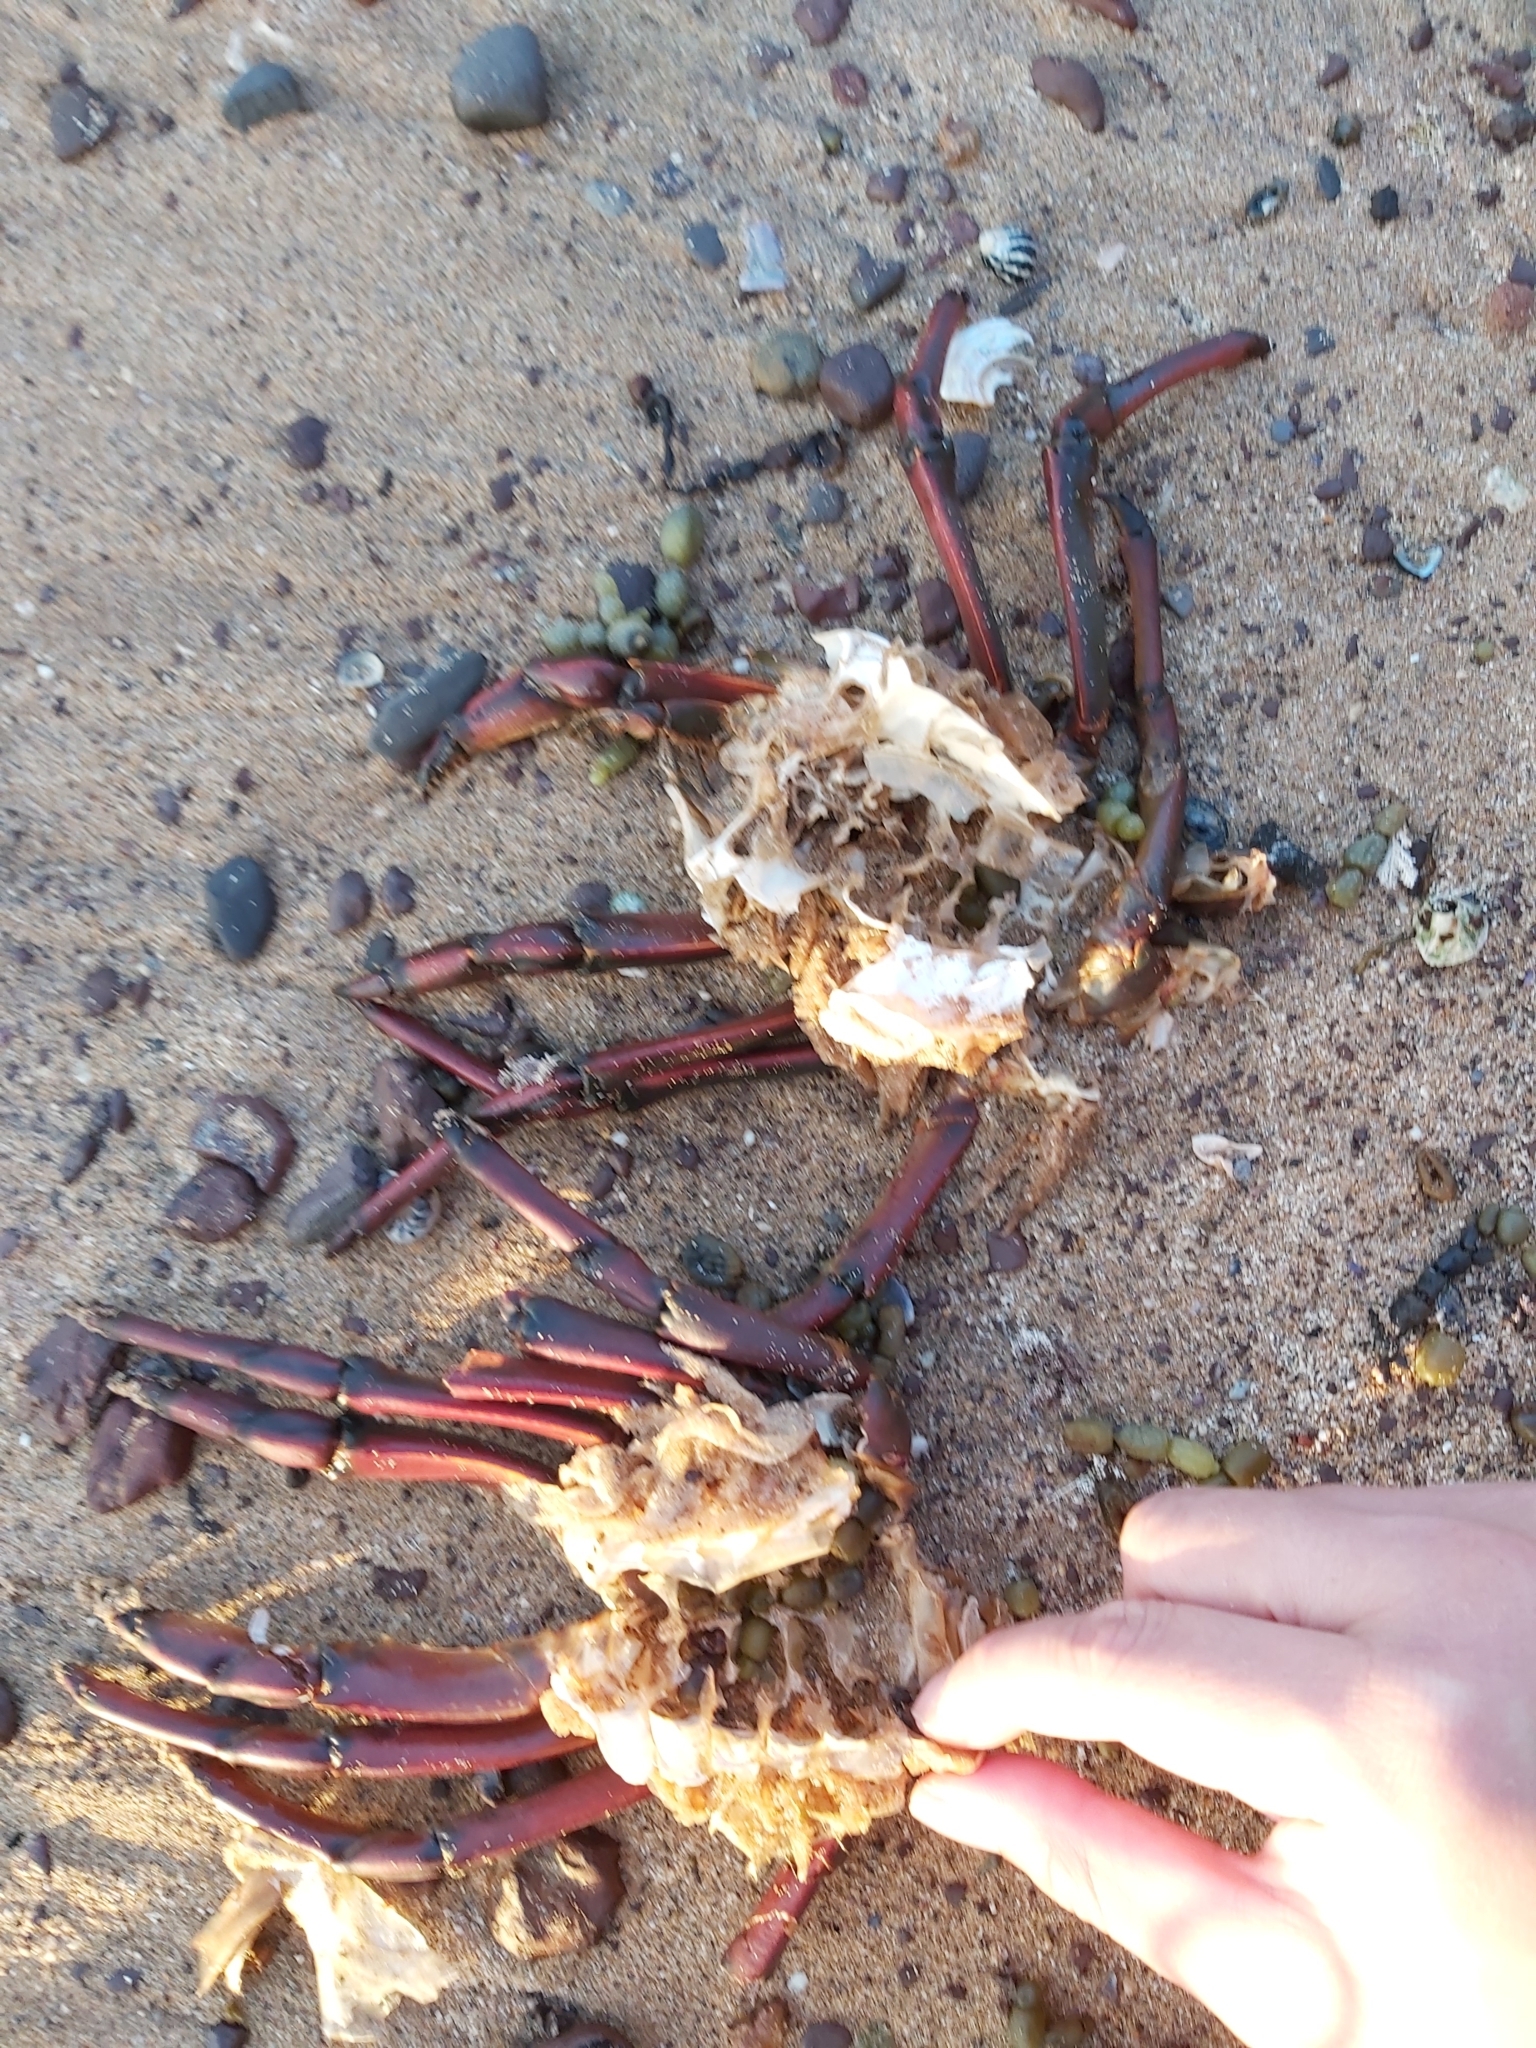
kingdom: Animalia
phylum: Arthropoda
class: Malacostraca
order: Decapoda
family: Palinuridae
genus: Sagmariasus
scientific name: Sagmariasus verreauxi
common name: Green rock lobster
